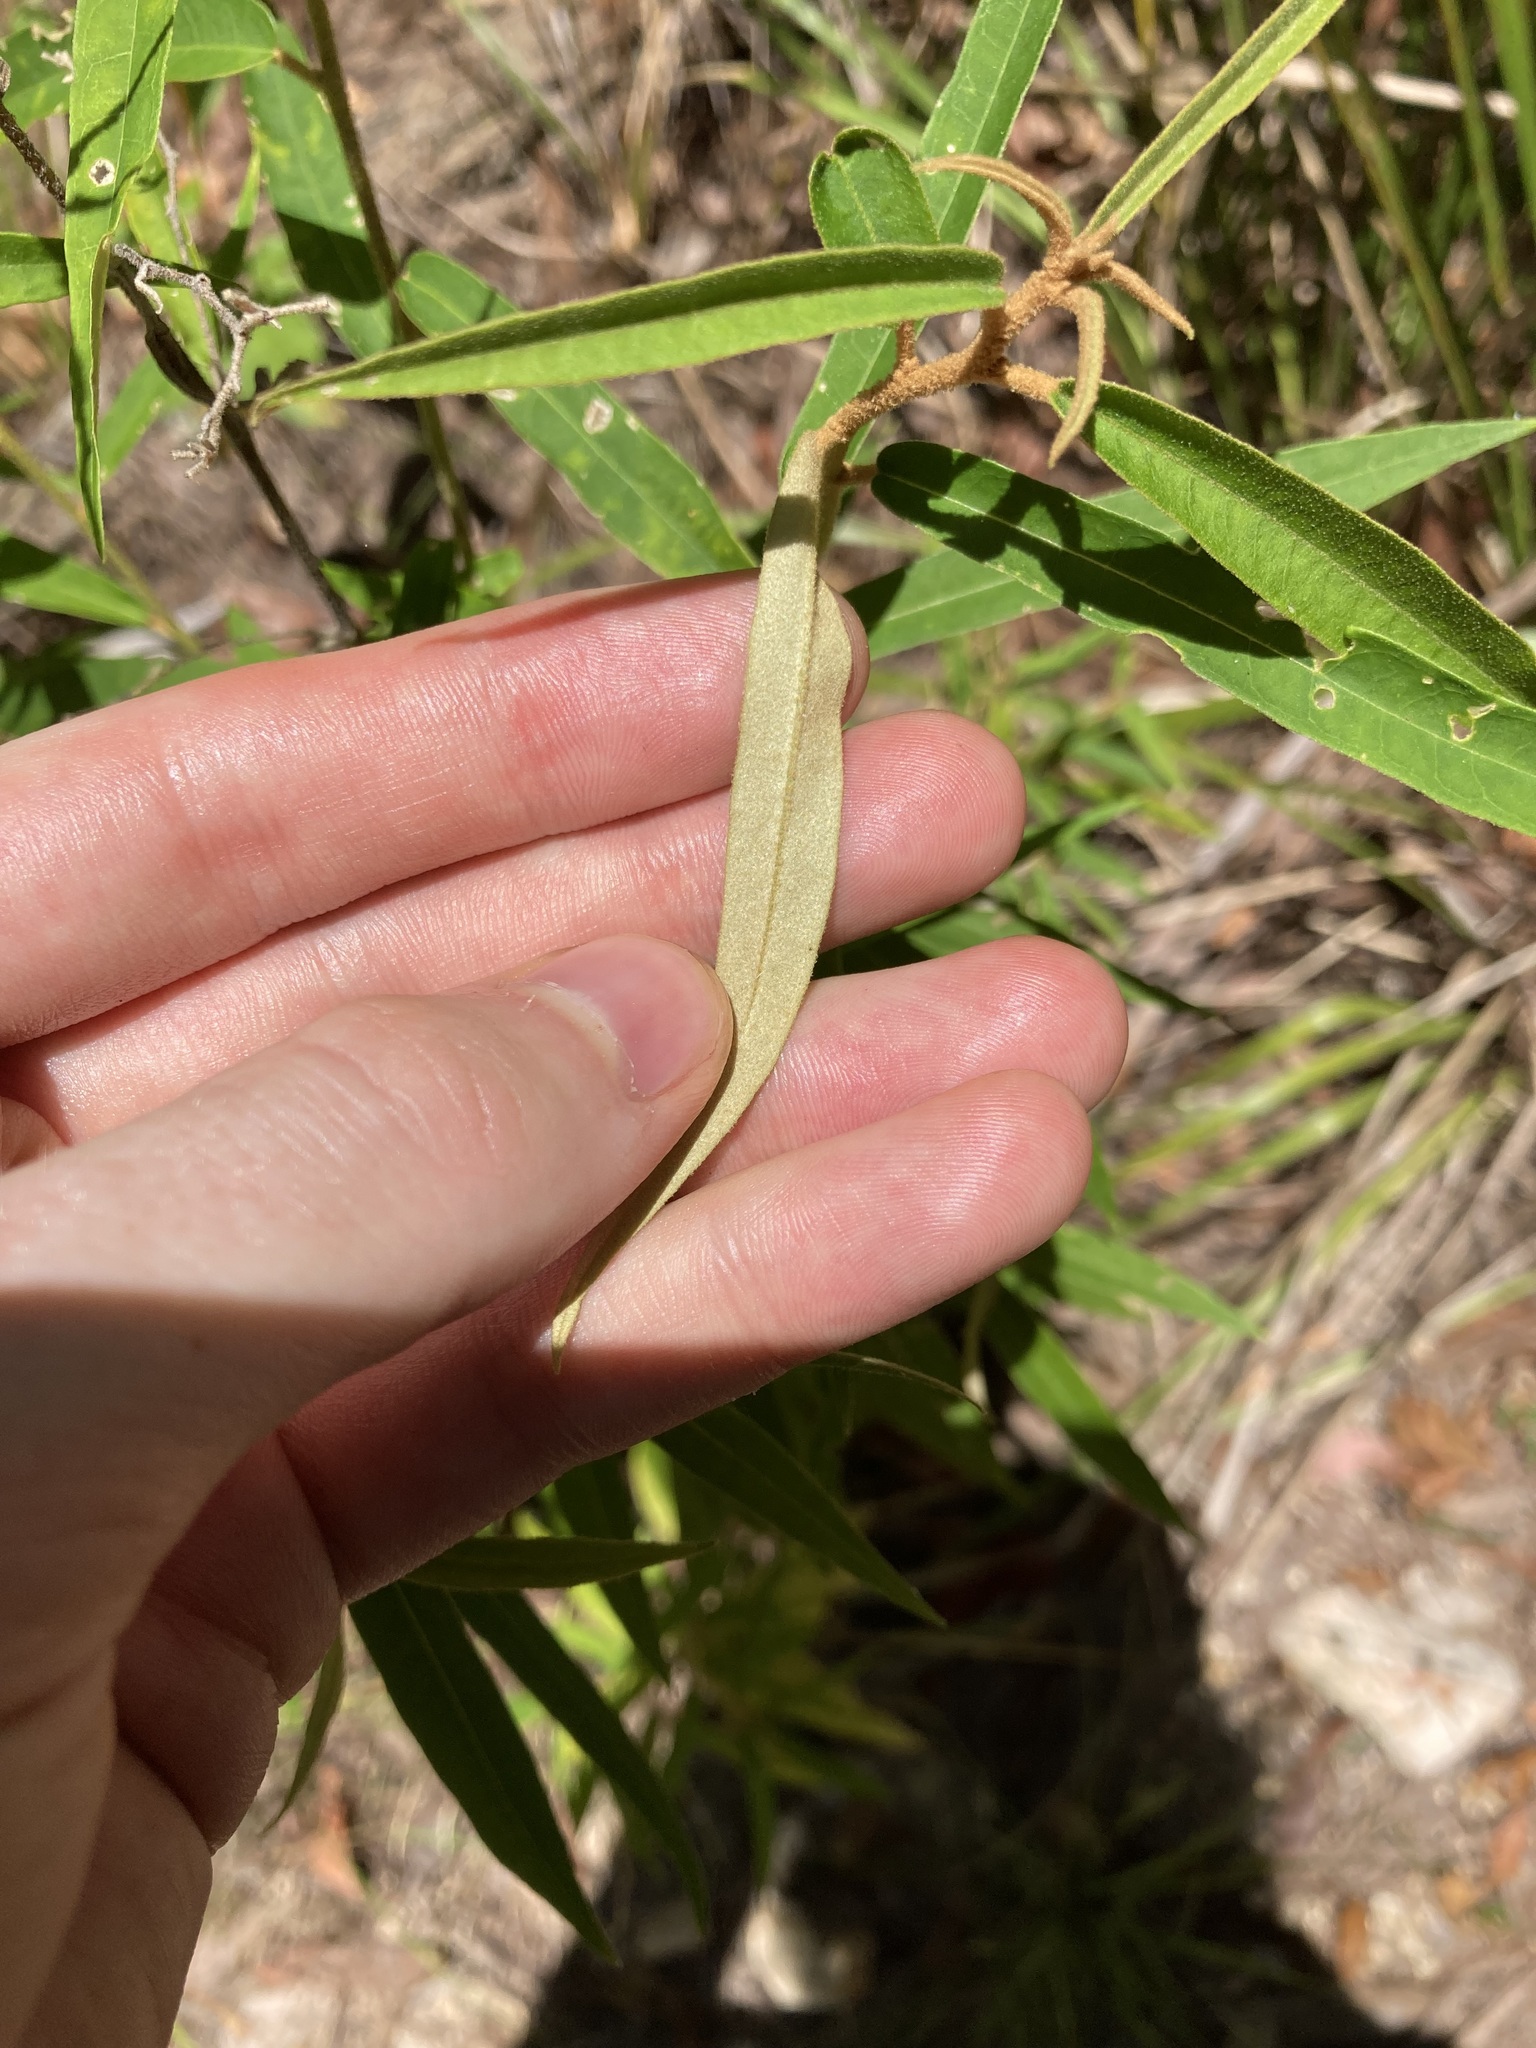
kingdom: Plantae
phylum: Tracheophyta
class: Magnoliopsida
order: Apiales
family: Araliaceae
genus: Astrotricha
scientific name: Astrotricha longifolia
